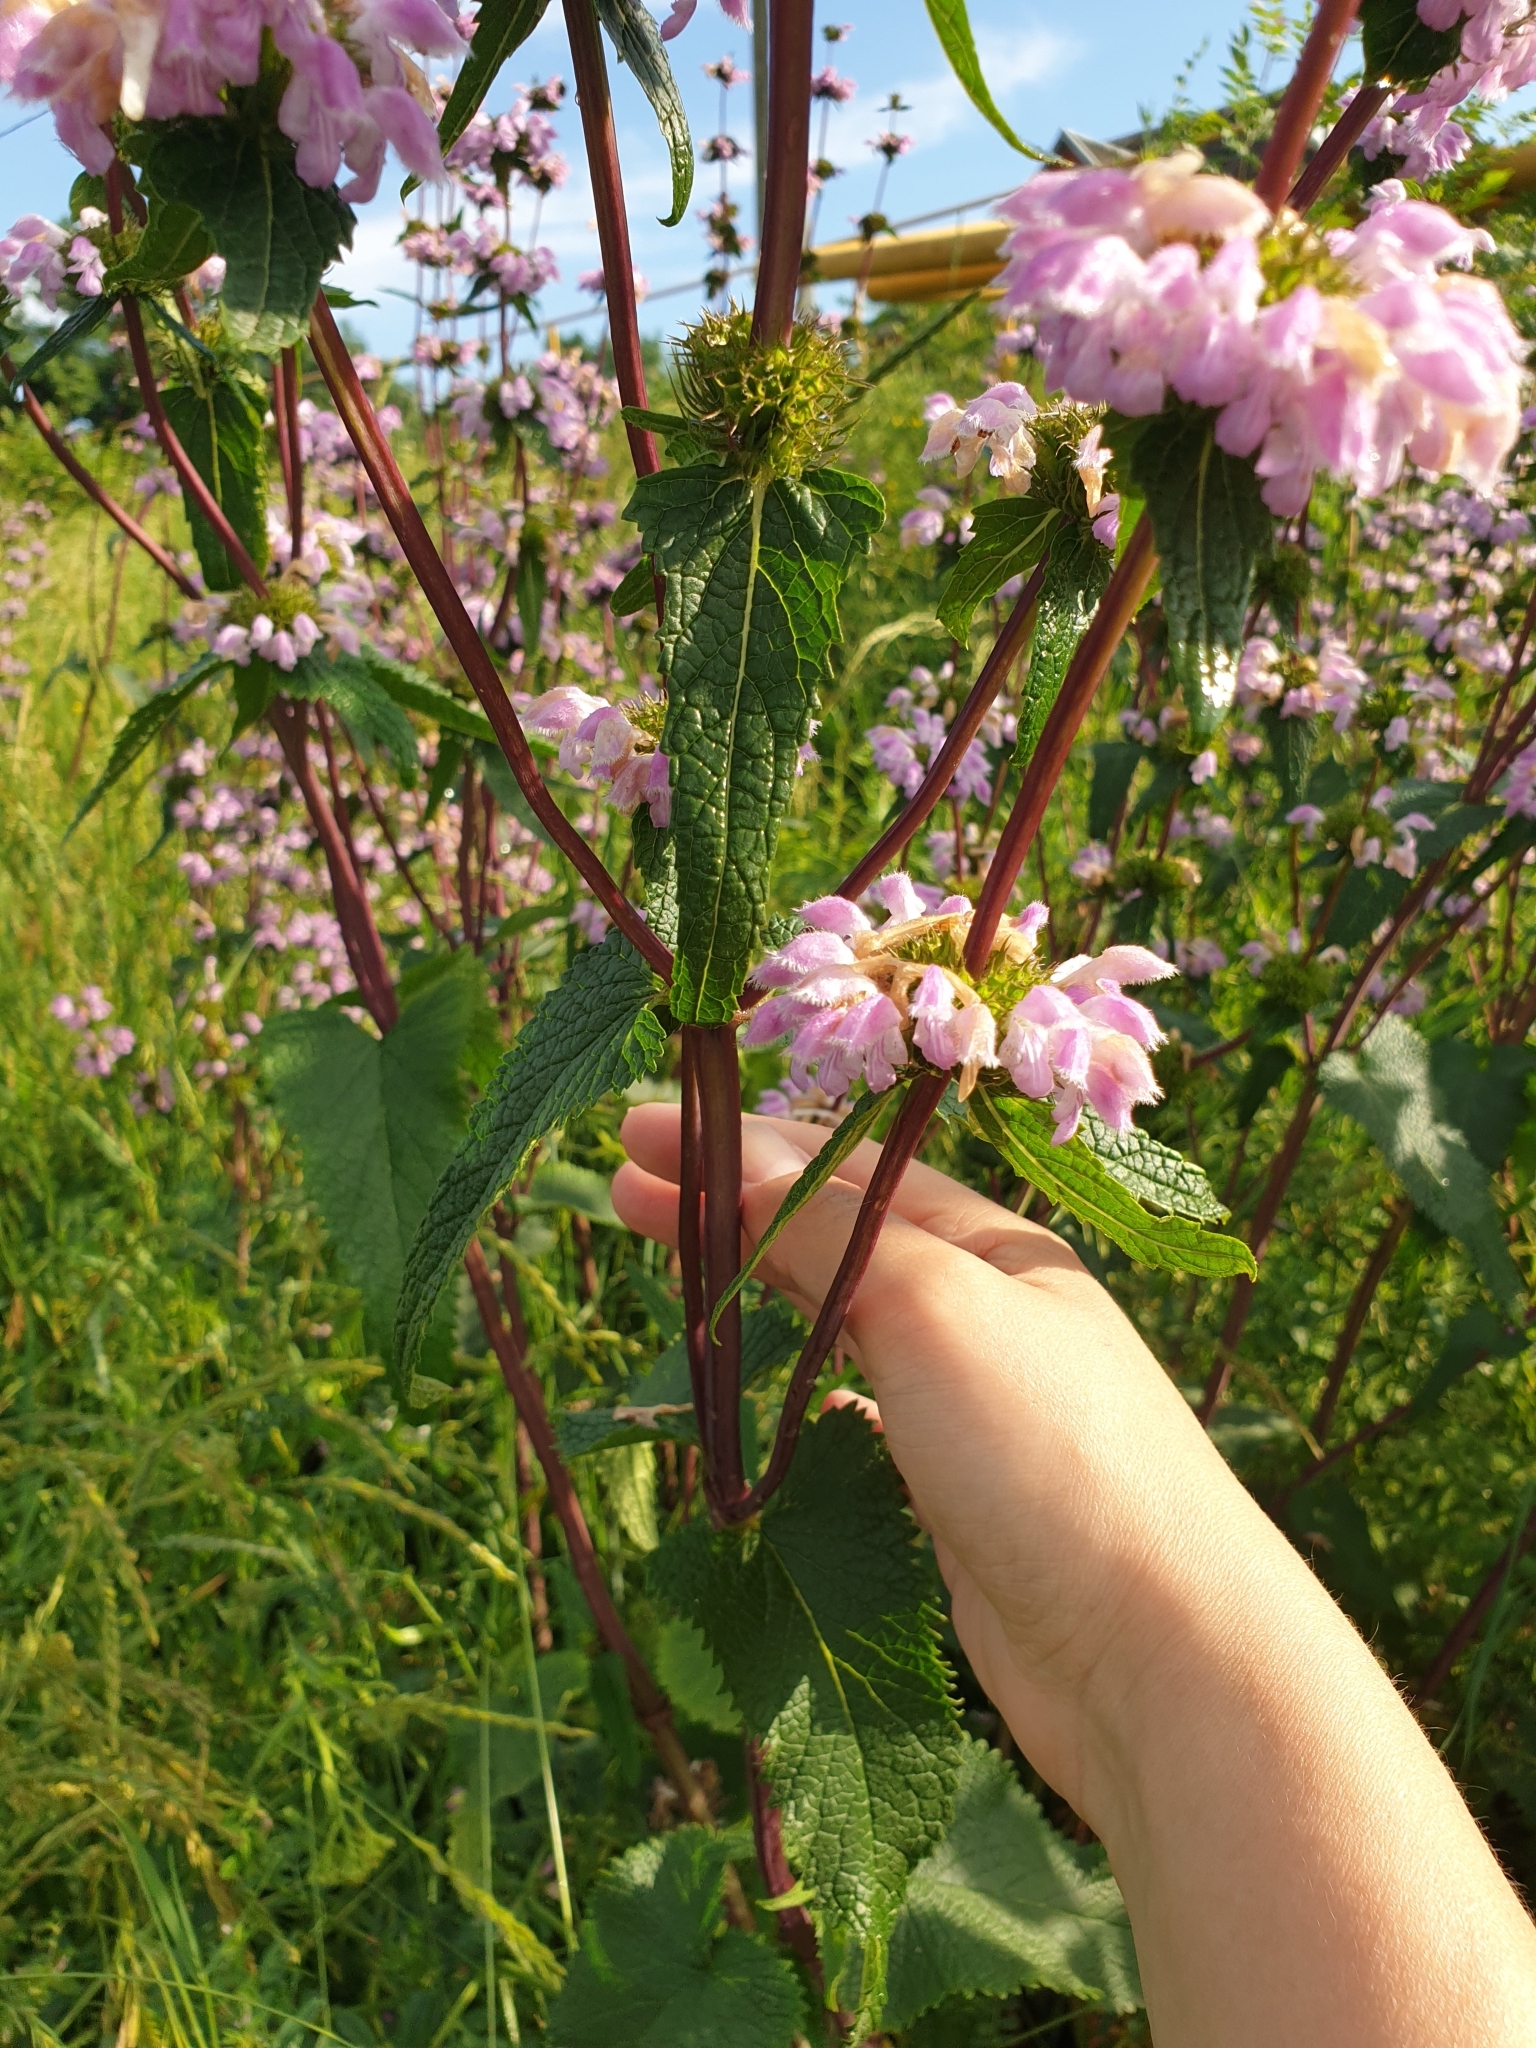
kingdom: Plantae
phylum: Tracheophyta
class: Magnoliopsida
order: Lamiales
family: Lamiaceae
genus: Phlomoides
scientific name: Phlomoides tuberosa
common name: Tuberous jerusalem sage
